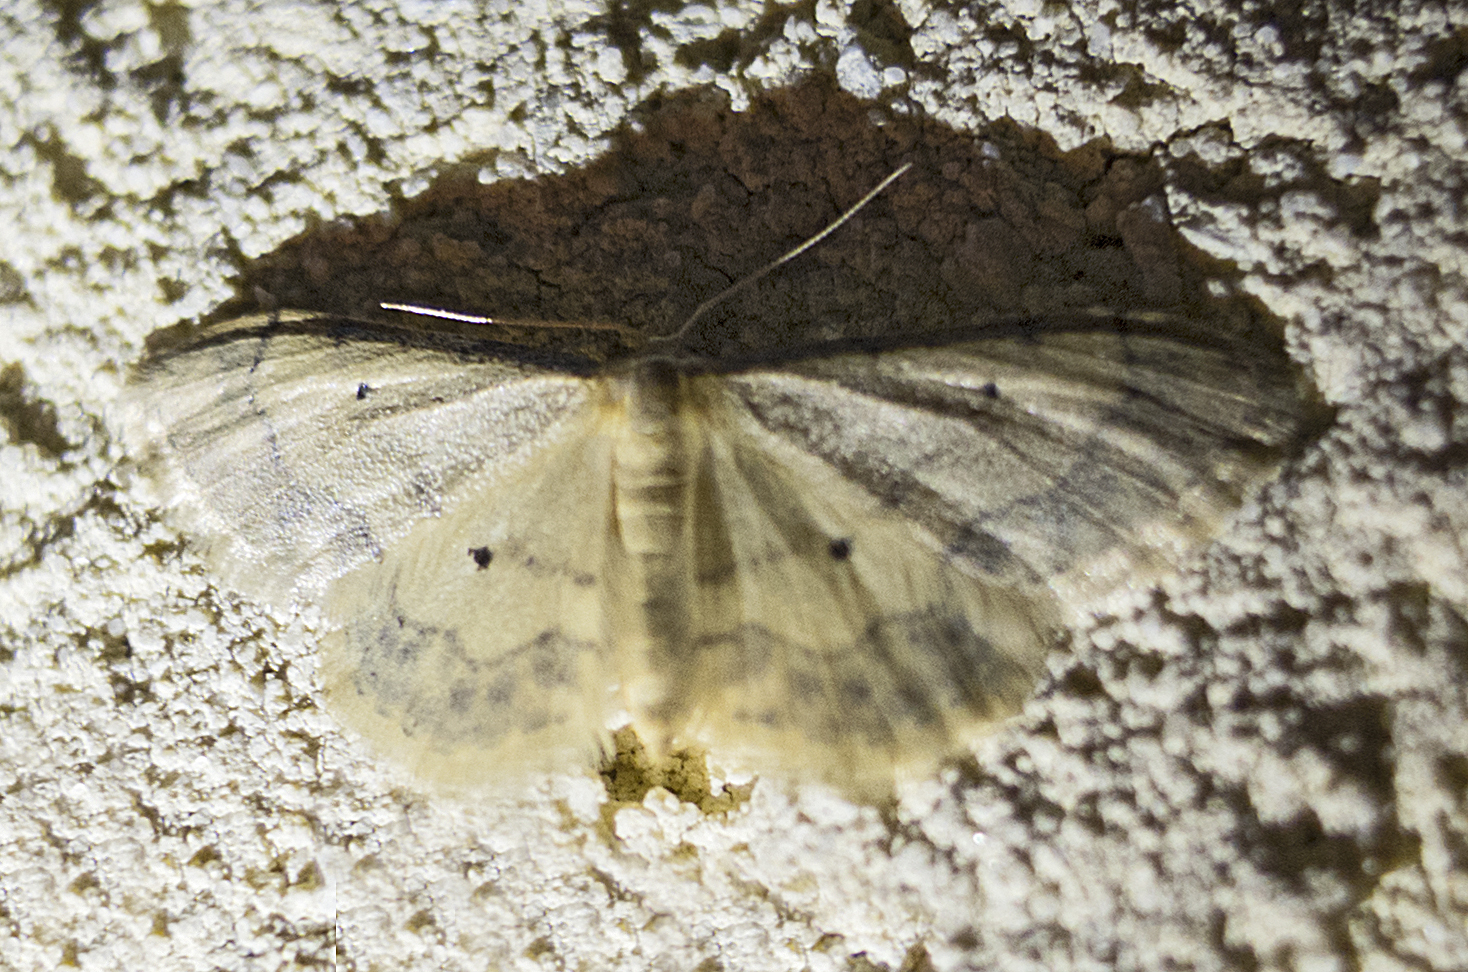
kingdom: Animalia
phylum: Arthropoda
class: Insecta
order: Lepidoptera
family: Geometridae
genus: Idaea
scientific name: Idaea politaria
